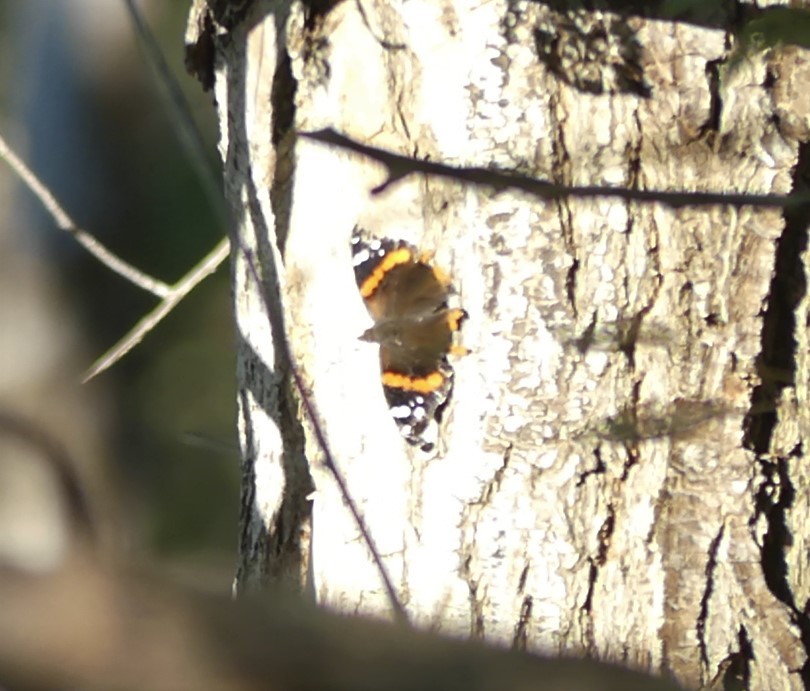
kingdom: Animalia
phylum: Arthropoda
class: Insecta
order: Lepidoptera
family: Nymphalidae
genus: Vanessa
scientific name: Vanessa atalanta
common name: Red admiral
